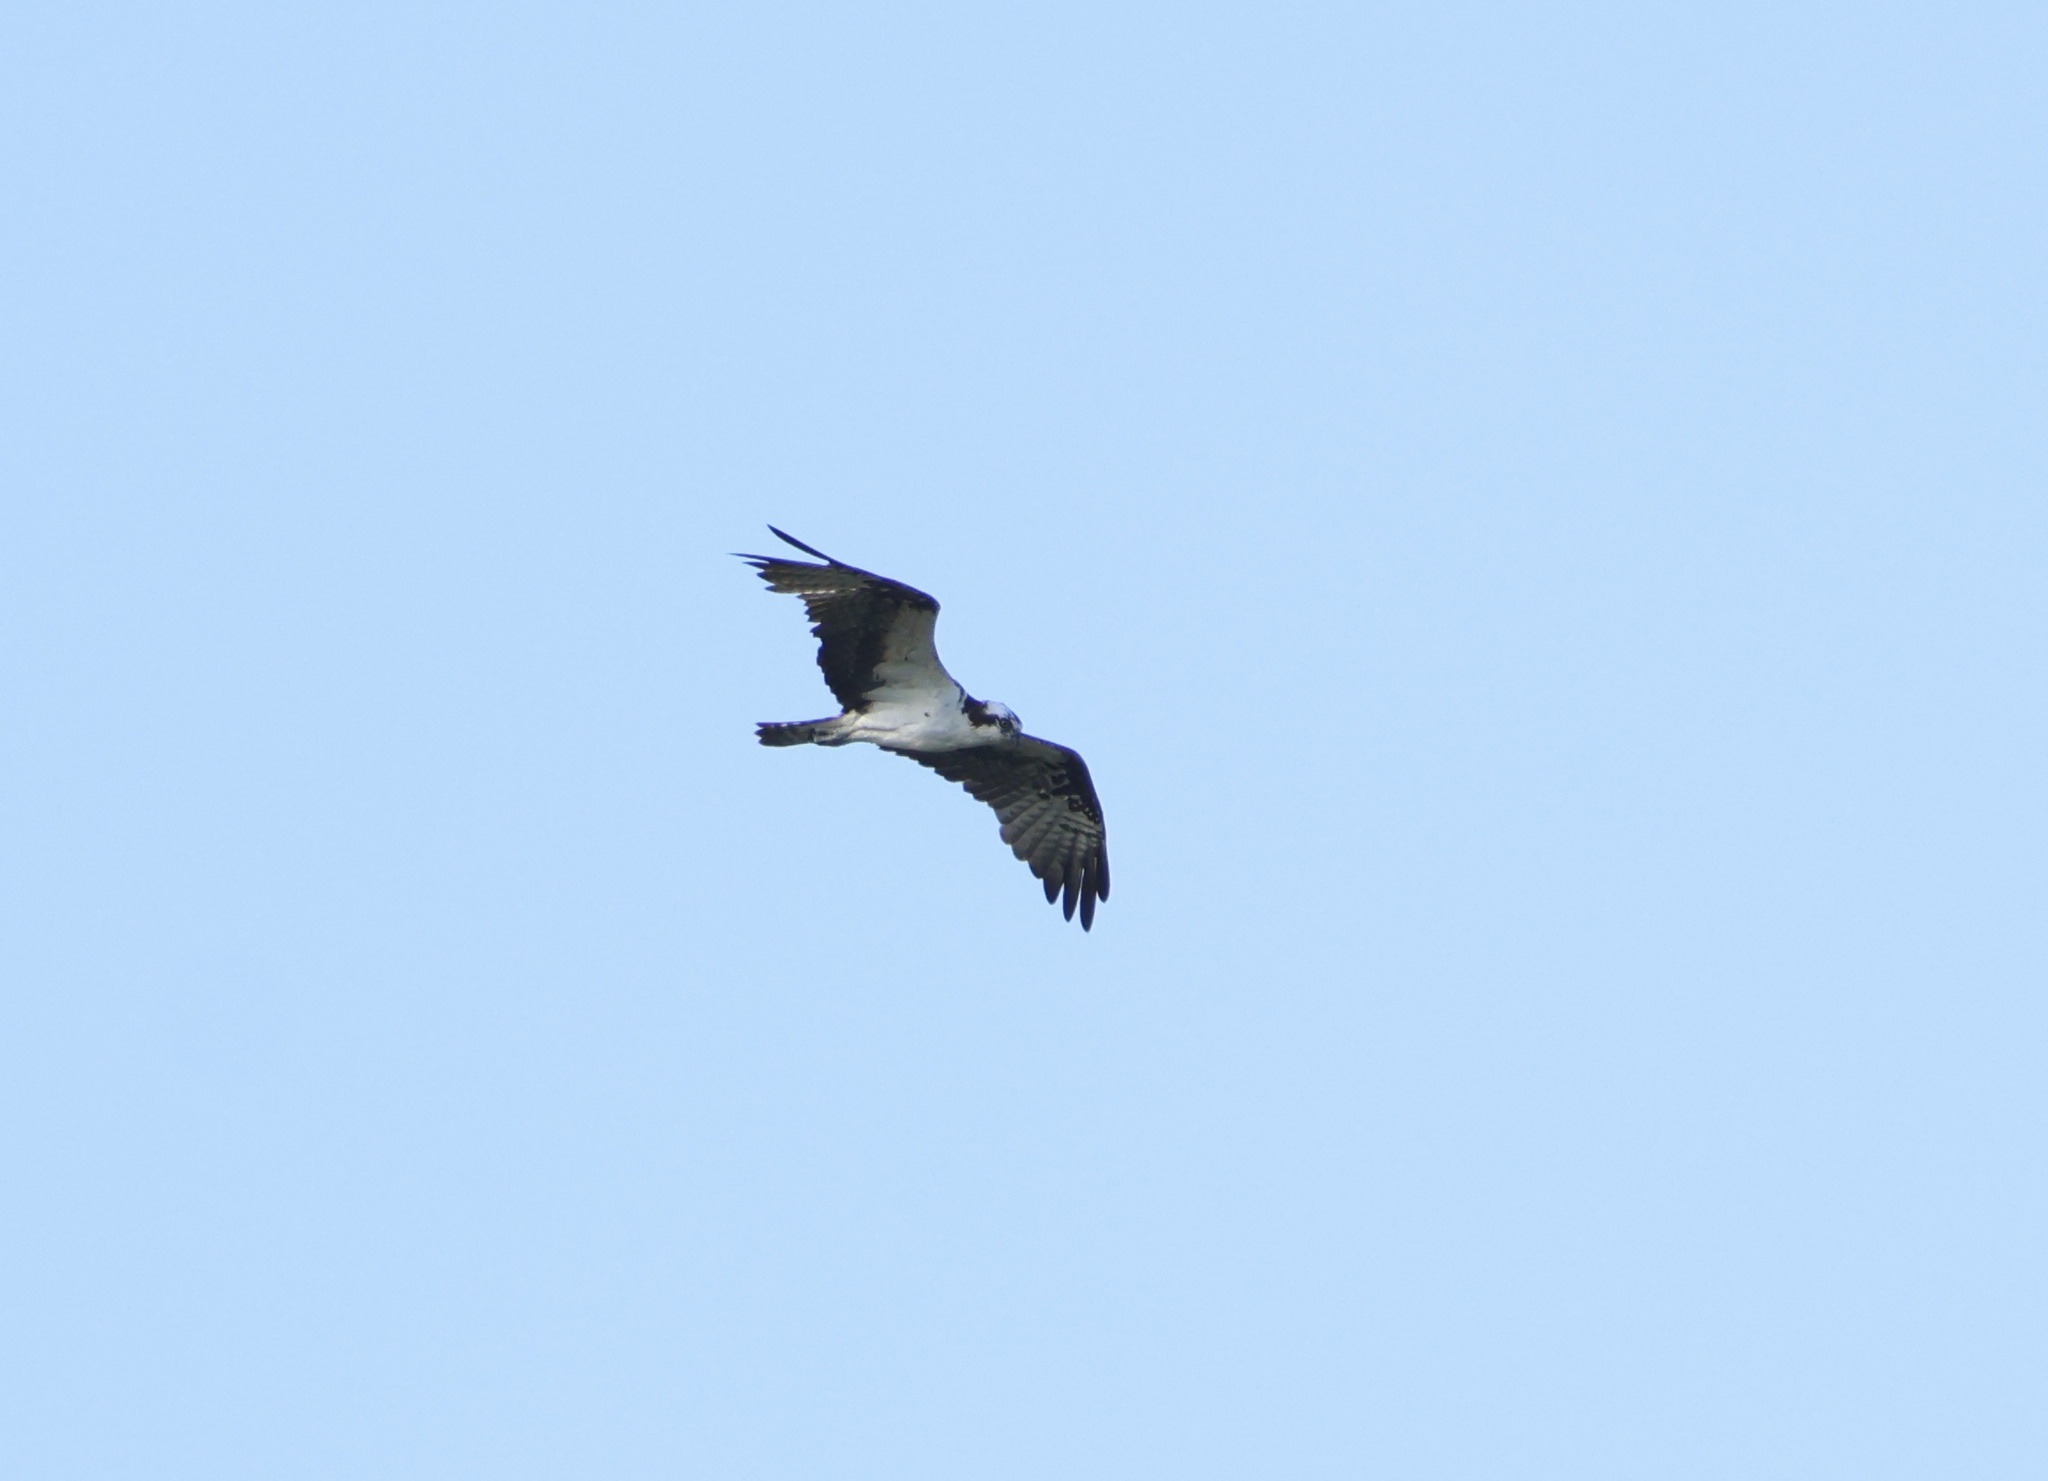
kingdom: Animalia
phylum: Chordata
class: Aves
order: Accipitriformes
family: Pandionidae
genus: Pandion
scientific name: Pandion haliaetus
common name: Osprey
